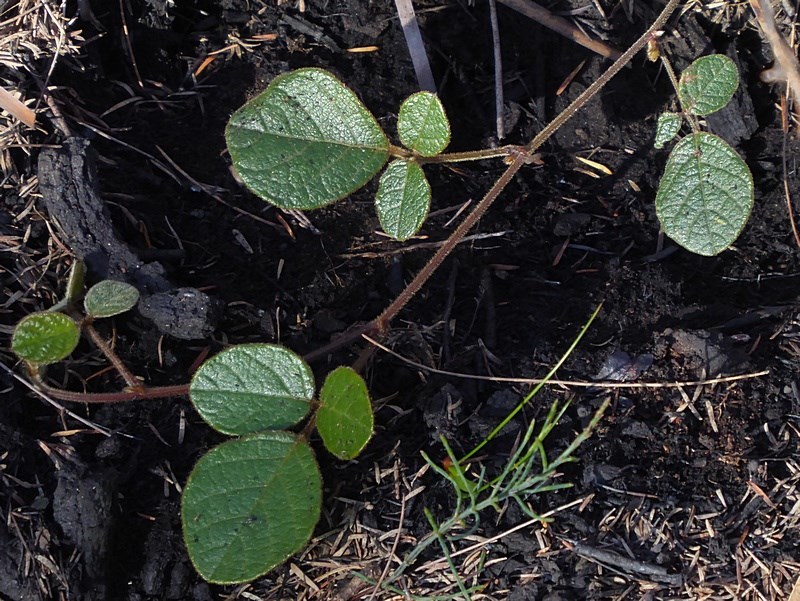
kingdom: Plantae
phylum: Tracheophyta
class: Magnoliopsida
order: Fabales
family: Fabaceae
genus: Kennedia
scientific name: Kennedia rubicunda
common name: Red kennedy-pea
